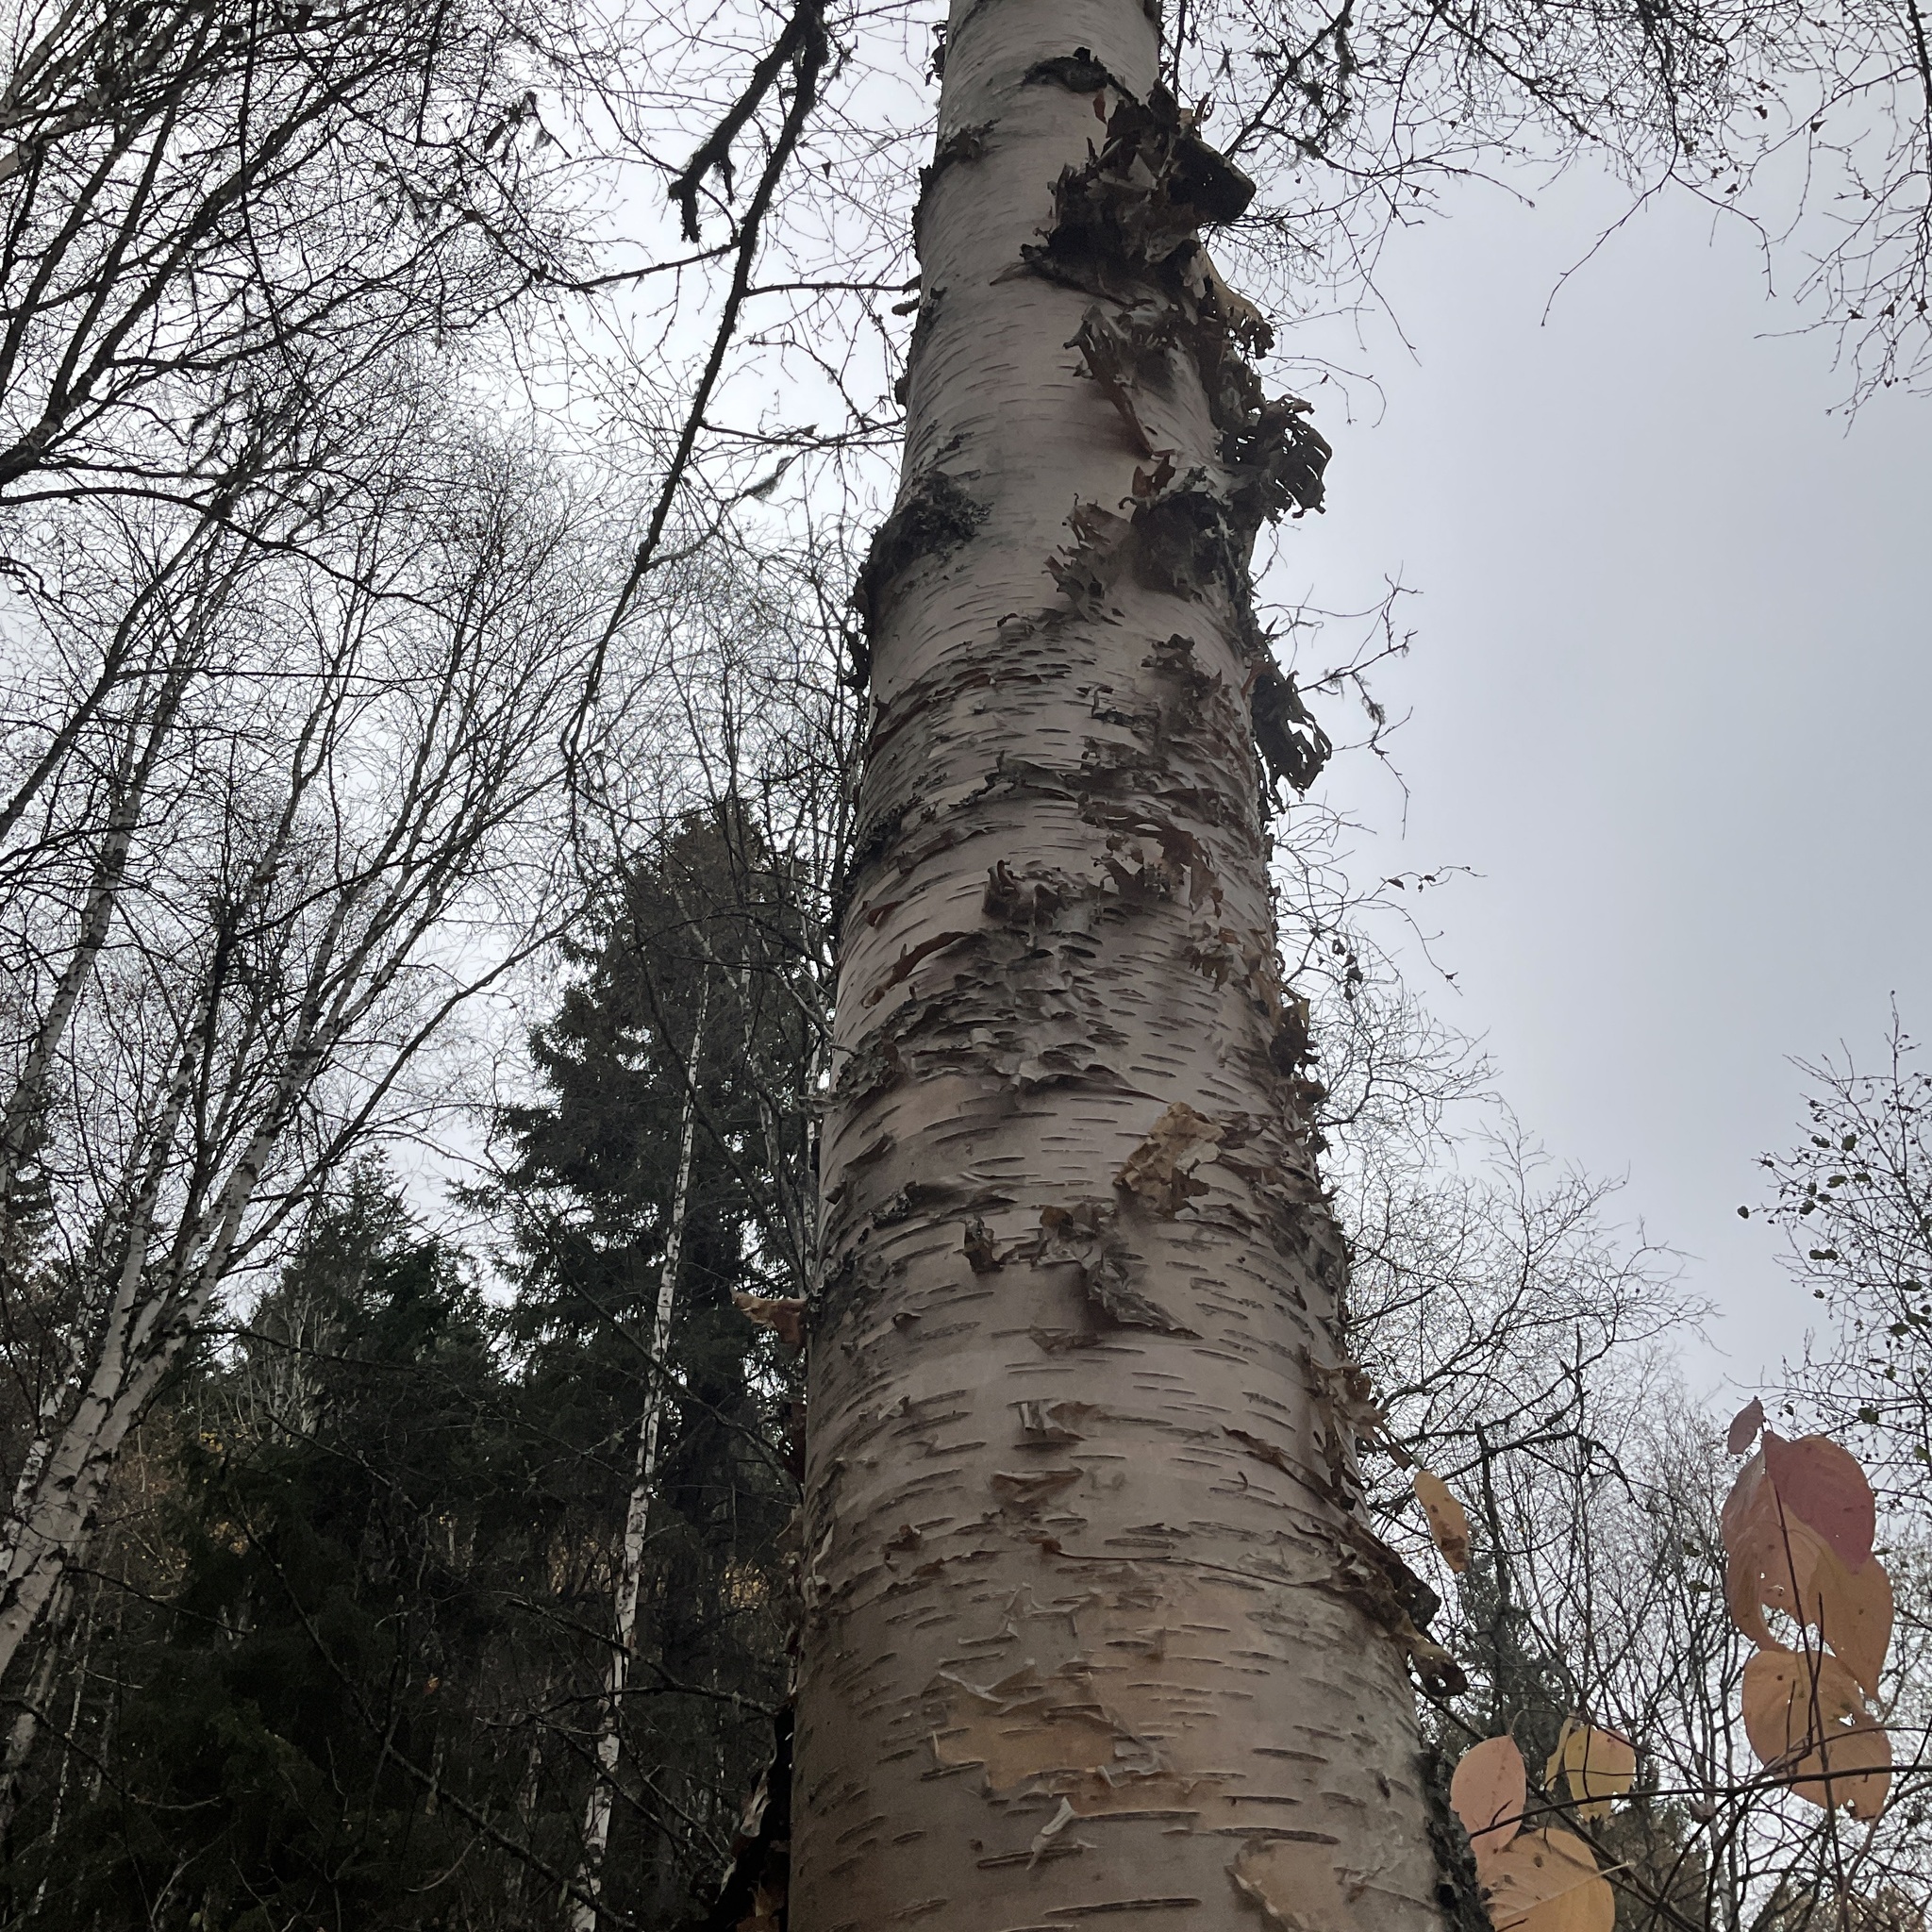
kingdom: Plantae
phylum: Tracheophyta
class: Magnoliopsida
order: Fagales
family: Betulaceae
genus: Betula
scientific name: Betula papyrifera
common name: Paper birch
